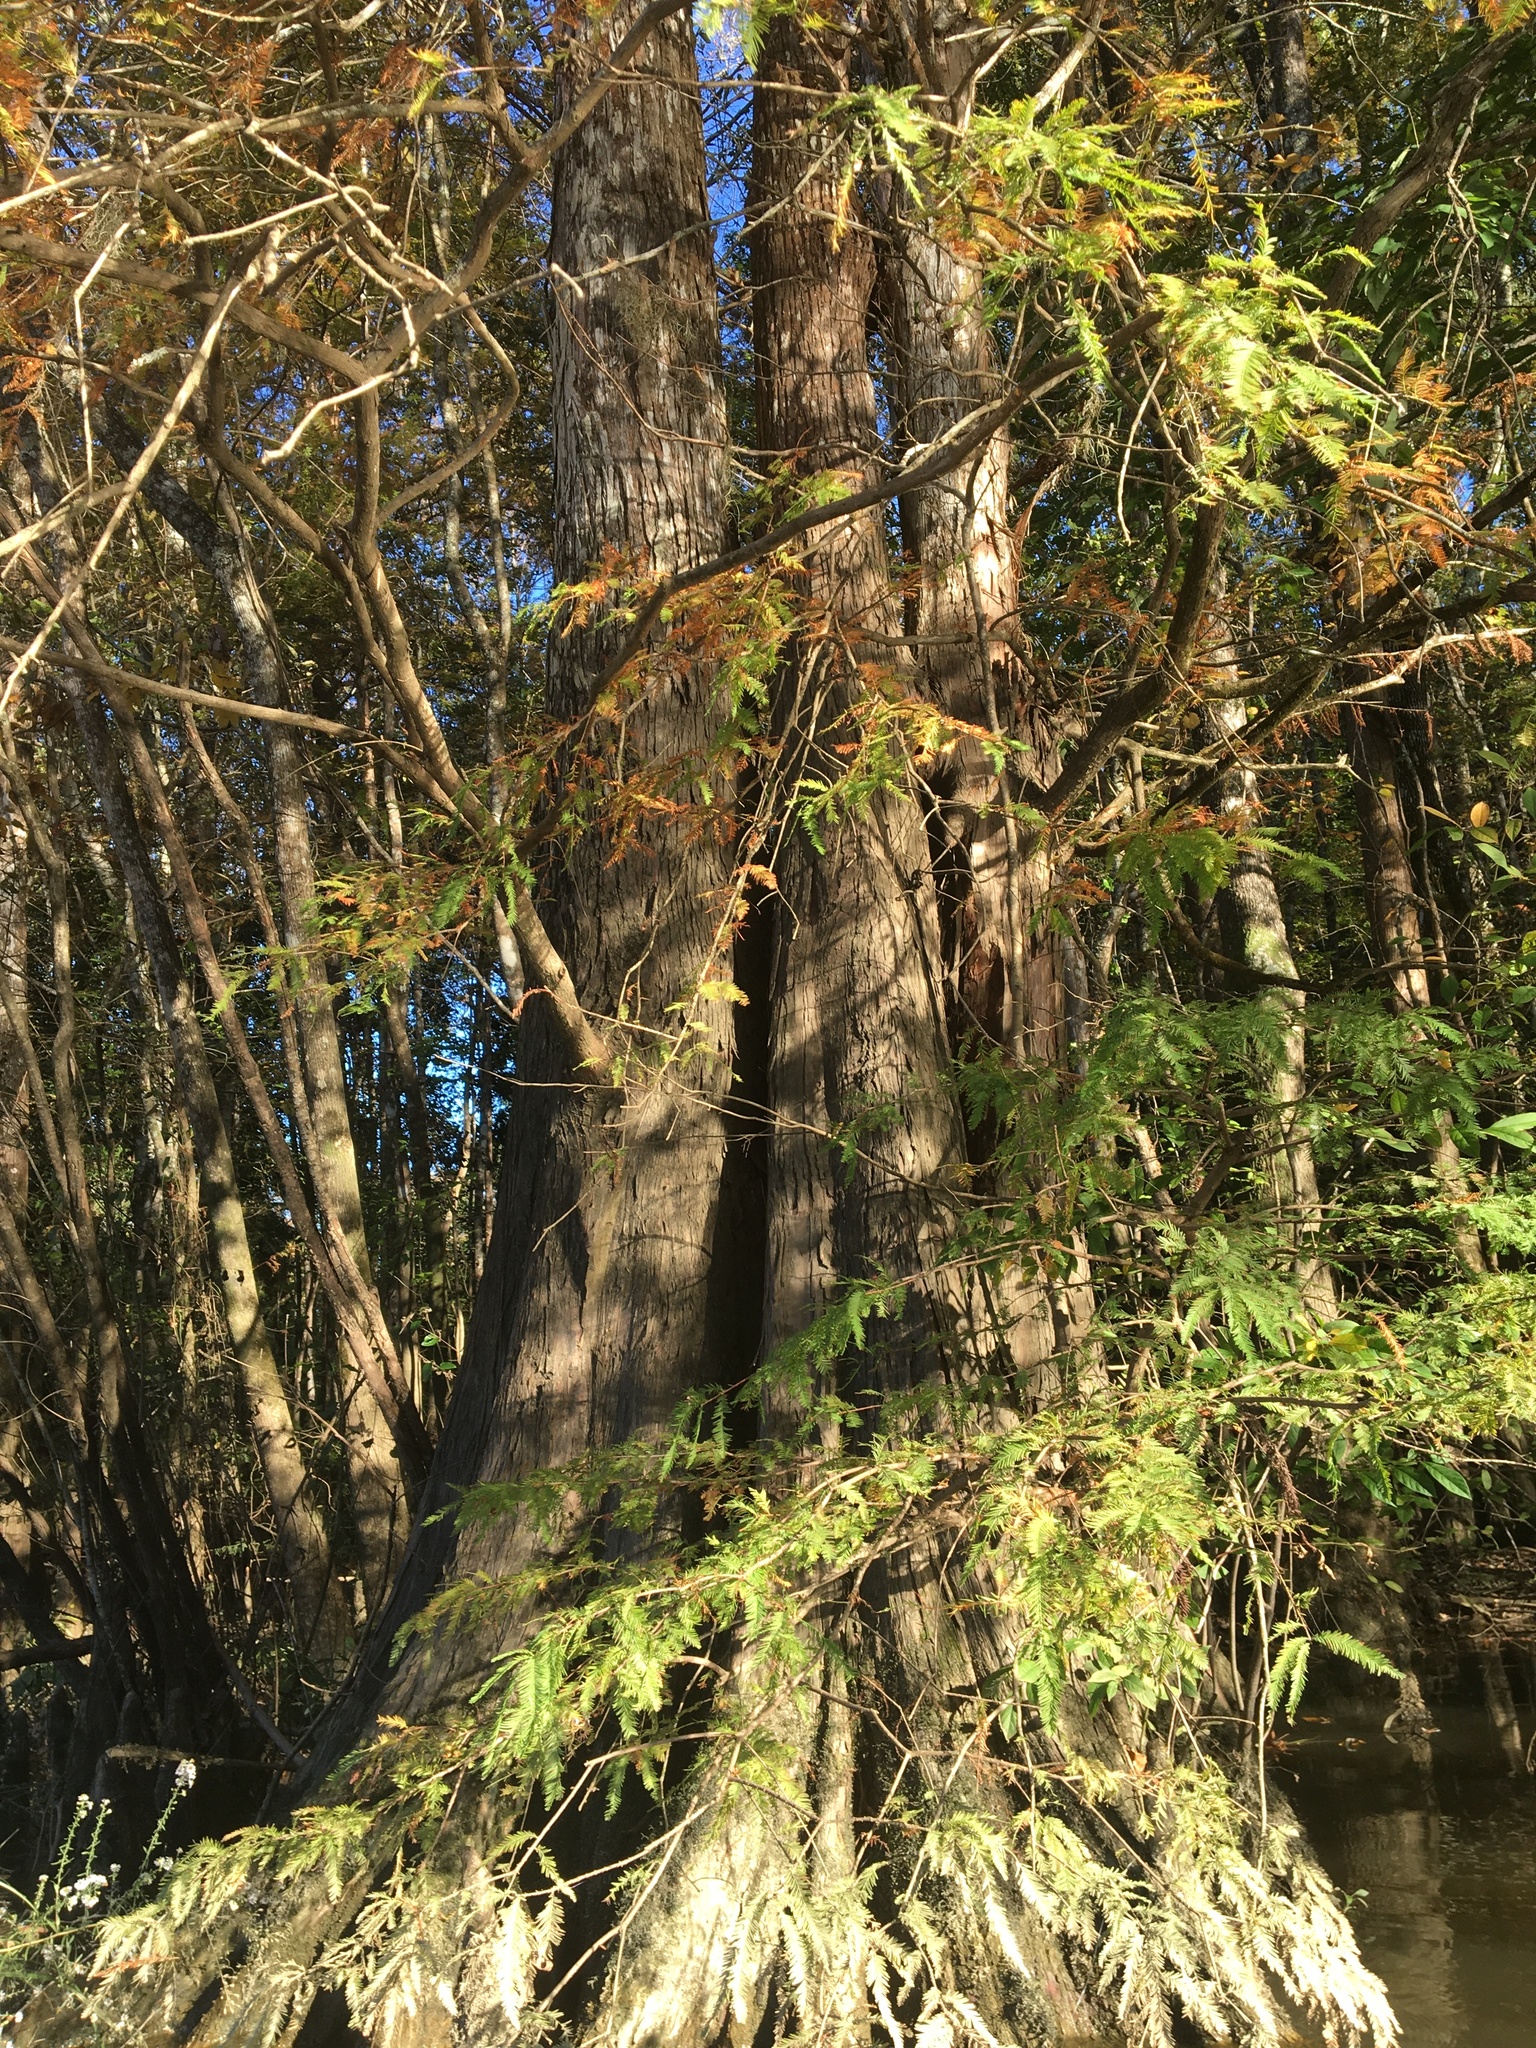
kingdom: Plantae
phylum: Tracheophyta
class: Pinopsida
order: Pinales
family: Cupressaceae
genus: Taxodium
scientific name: Taxodium distichum
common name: Bald cypress
